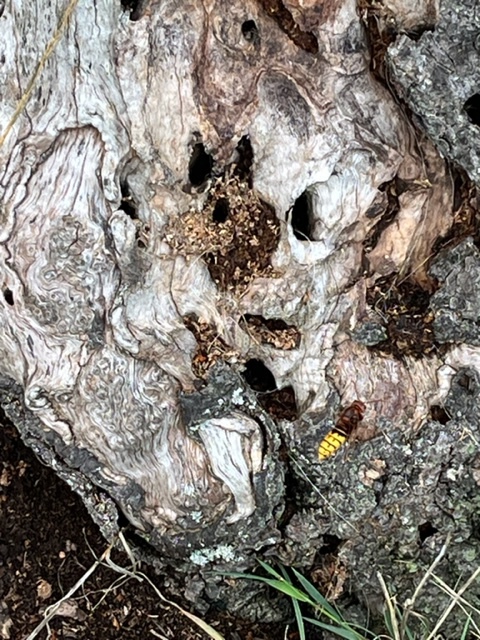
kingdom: Animalia
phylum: Arthropoda
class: Insecta
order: Hymenoptera
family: Vespidae
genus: Vespa
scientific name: Vespa crabro
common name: Hornet
